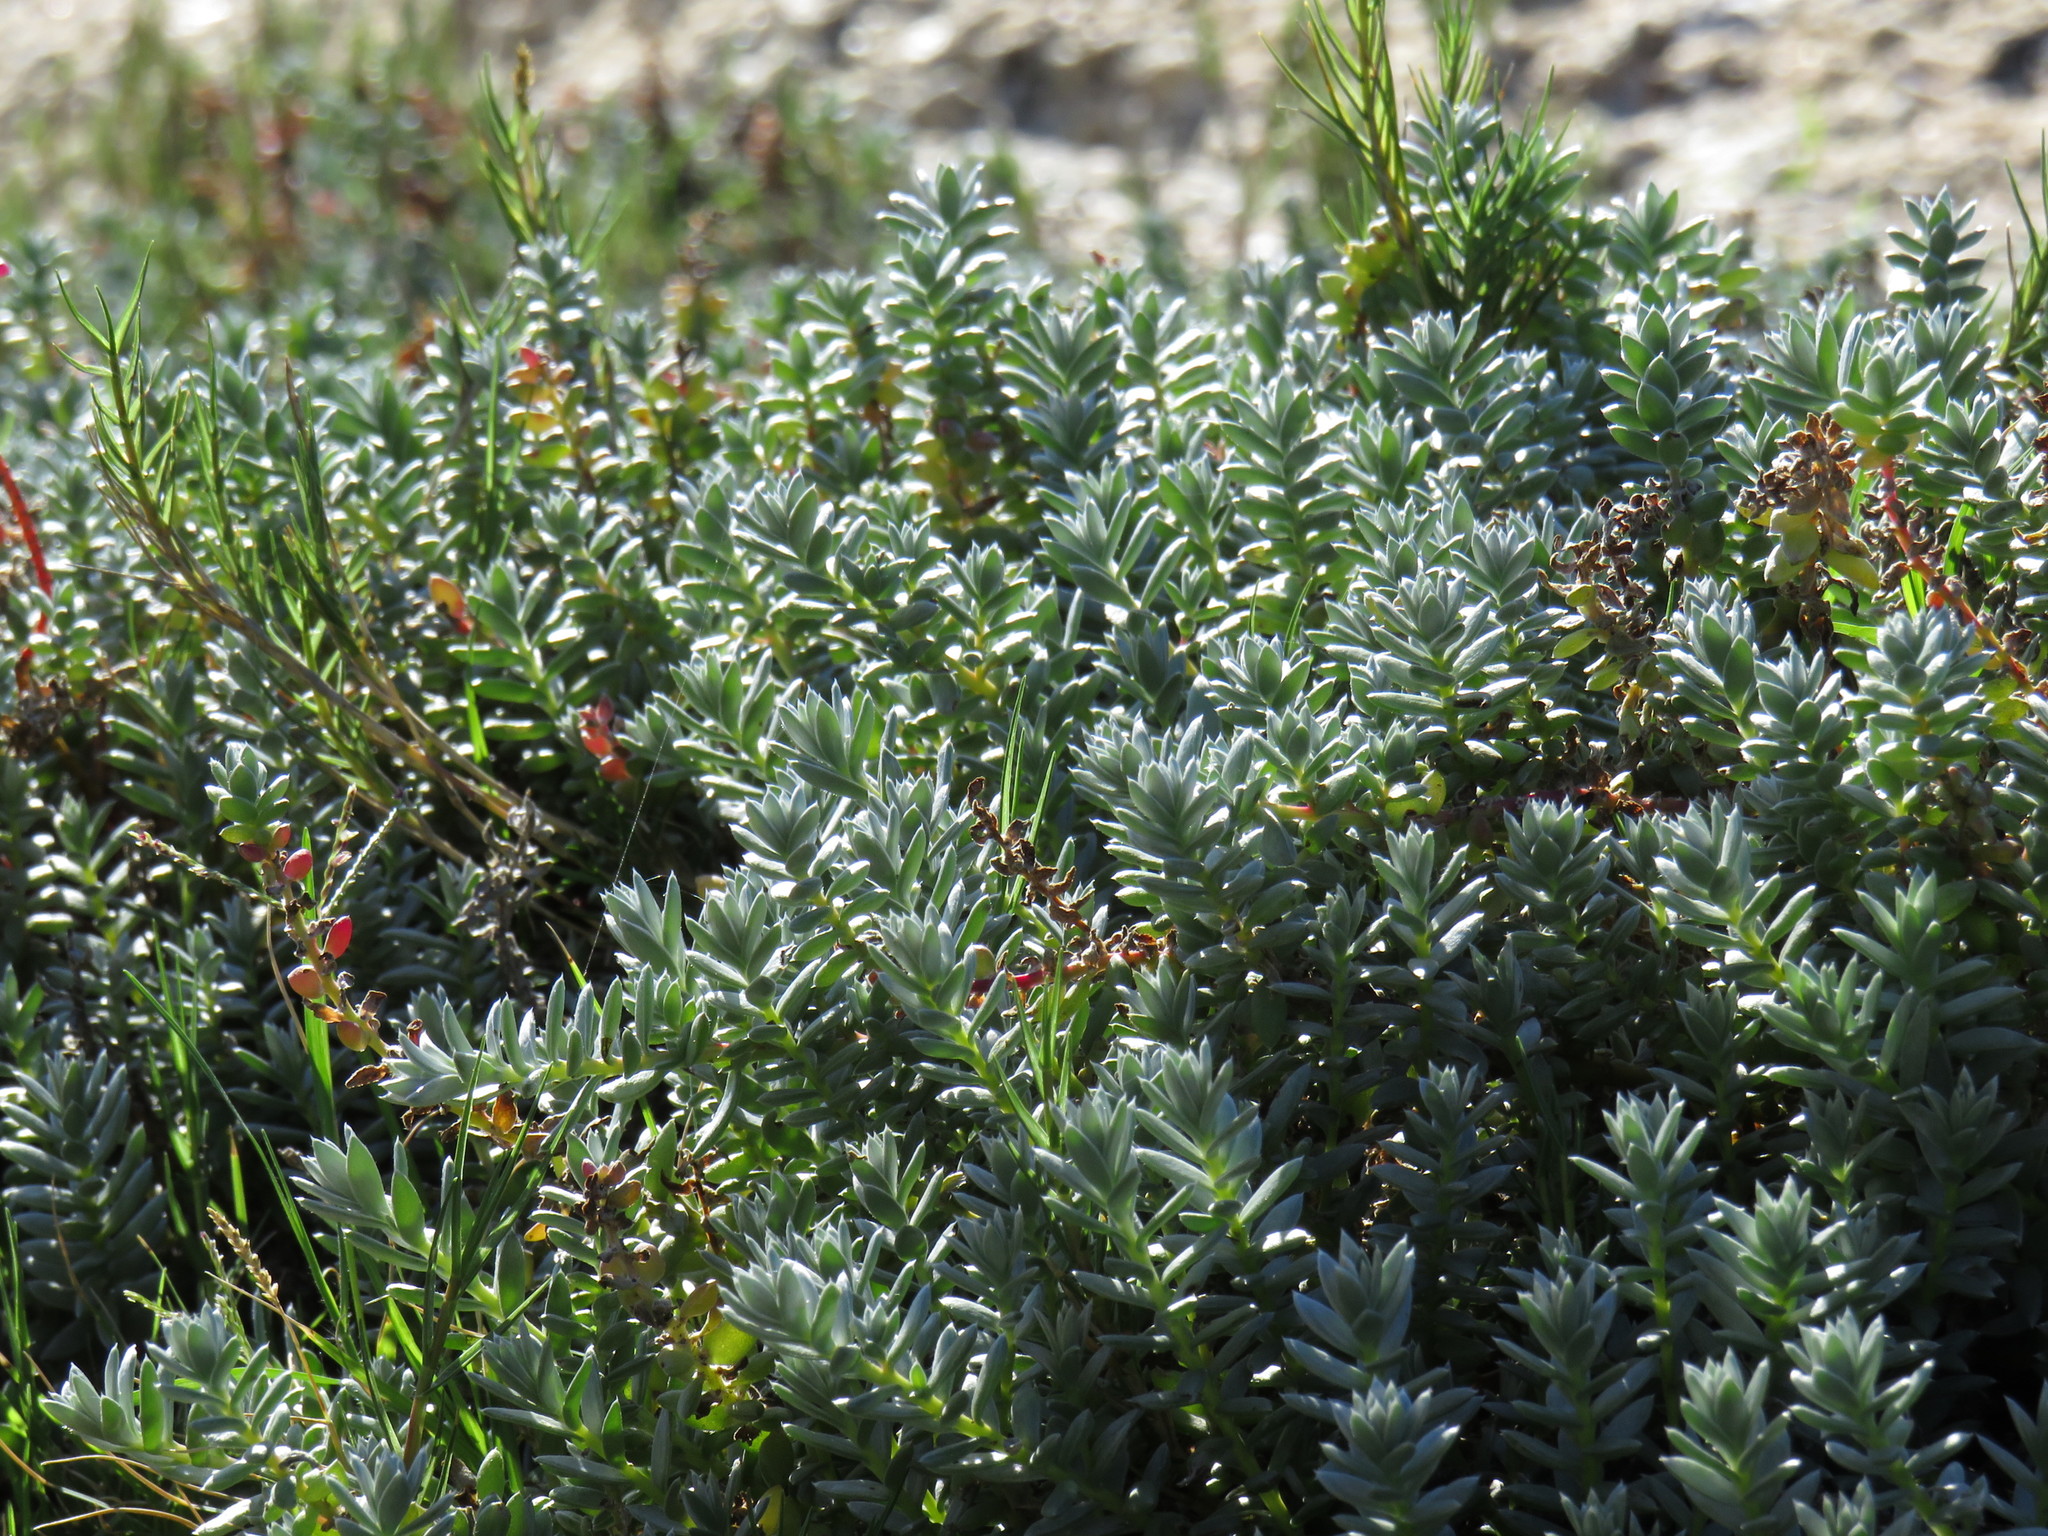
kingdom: Plantae
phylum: Tracheophyta
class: Magnoliopsida
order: Caryophyllales
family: Amaranthaceae
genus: Chenolea
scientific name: Chenolea diffusa
